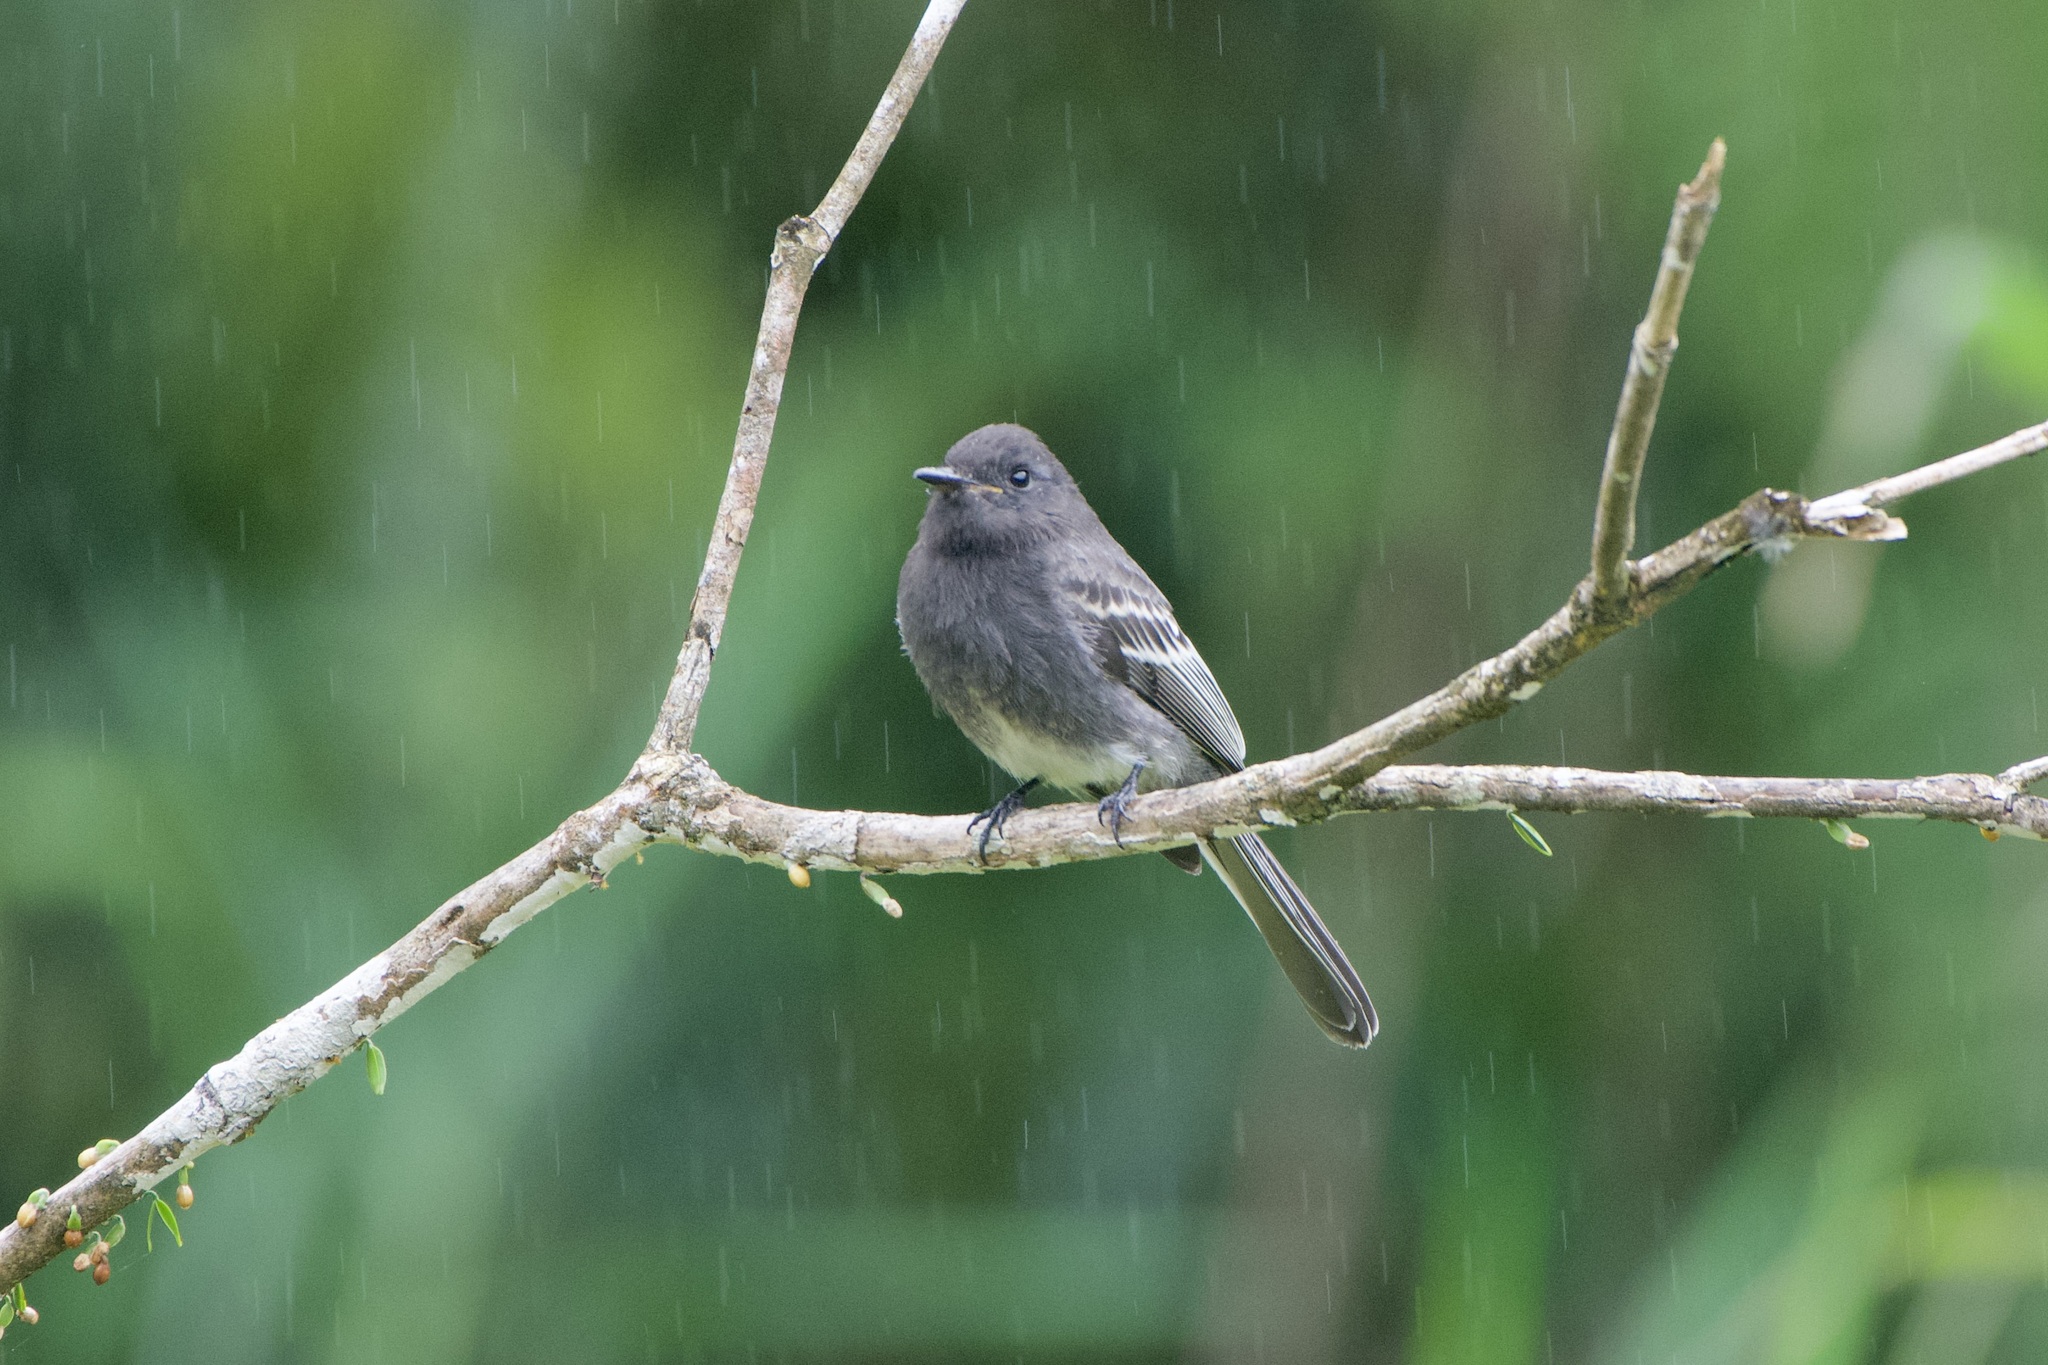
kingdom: Animalia
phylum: Chordata
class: Aves
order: Passeriformes
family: Tyrannidae
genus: Sayornis
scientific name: Sayornis nigricans
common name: Black phoebe
